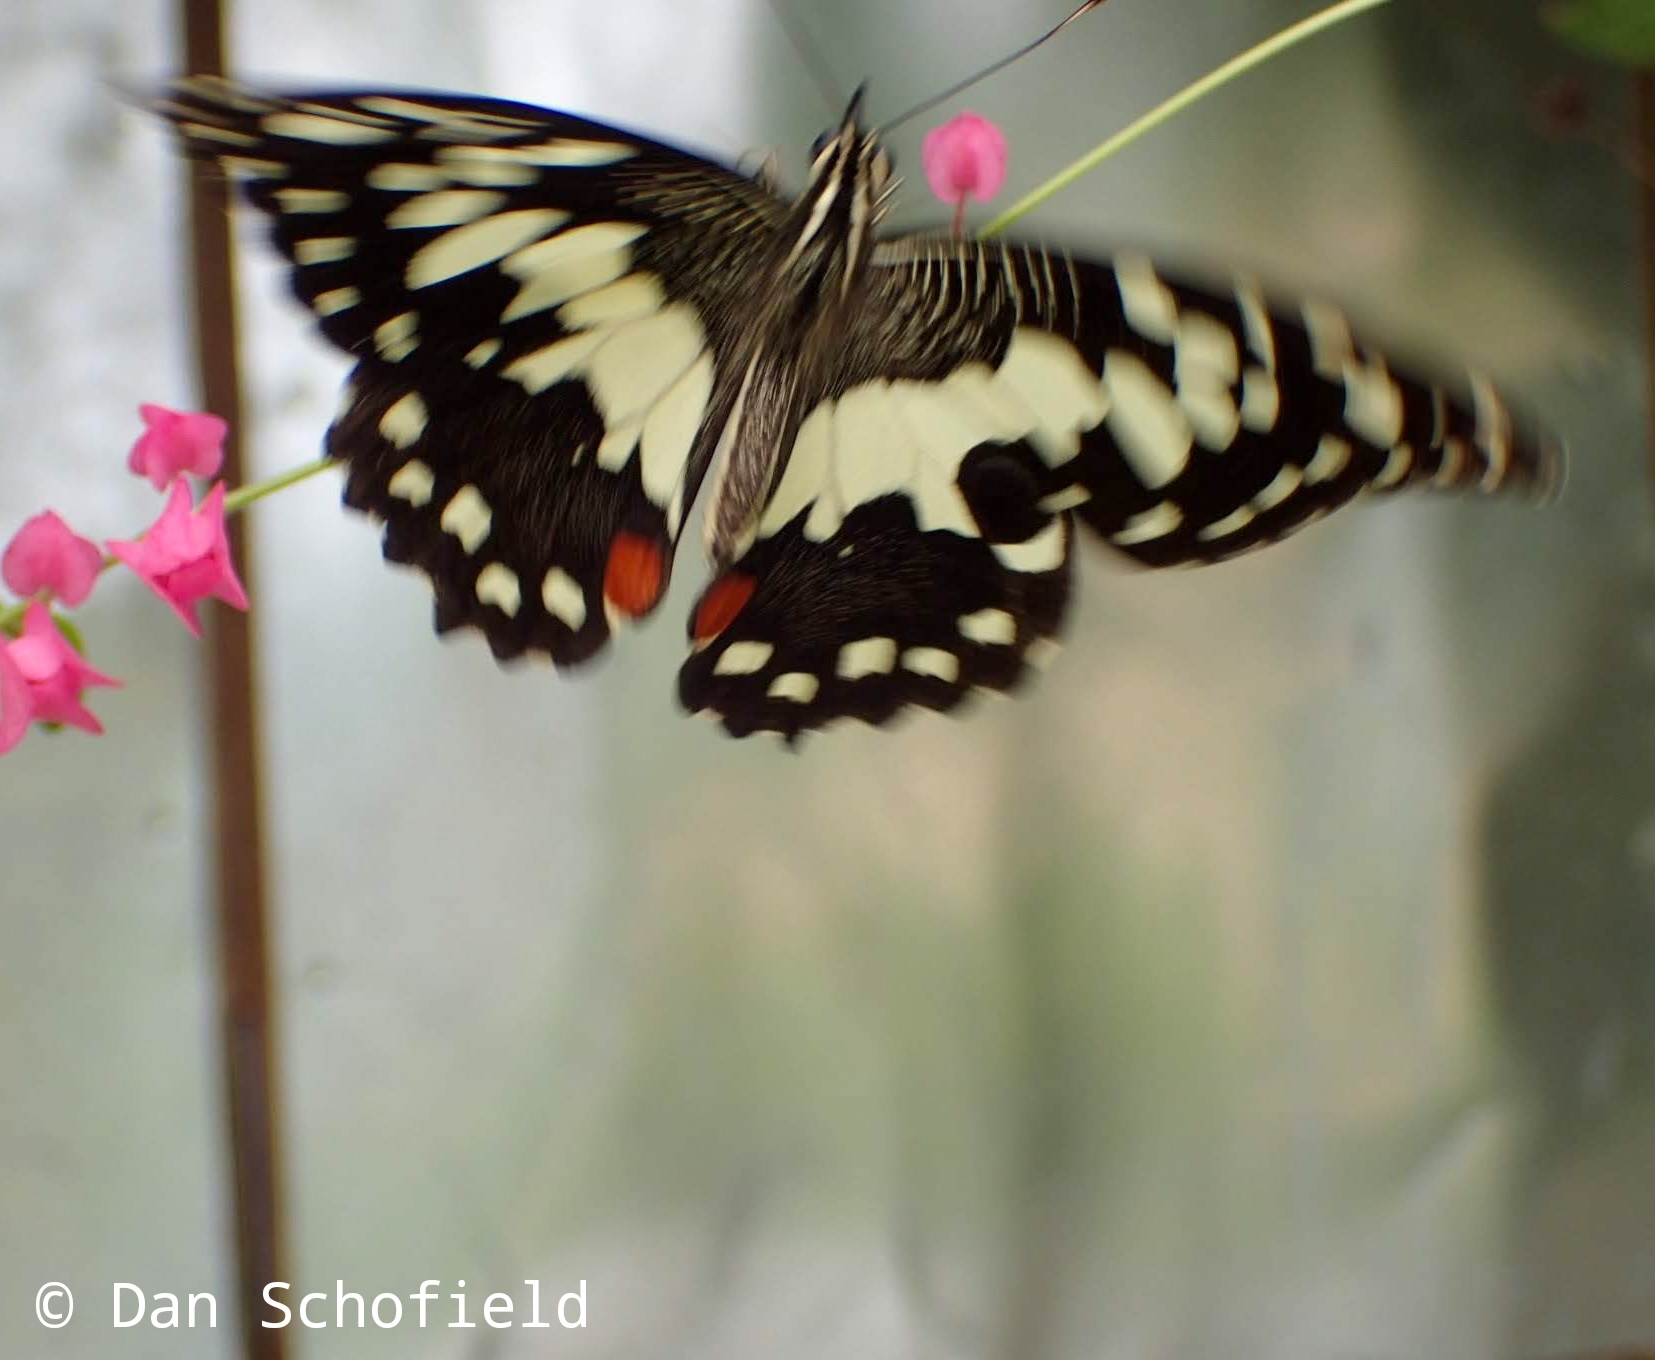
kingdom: Animalia
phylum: Arthropoda
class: Insecta
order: Lepidoptera
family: Papilionidae
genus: Papilio
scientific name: Papilio demoleus
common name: Lime butterfly
